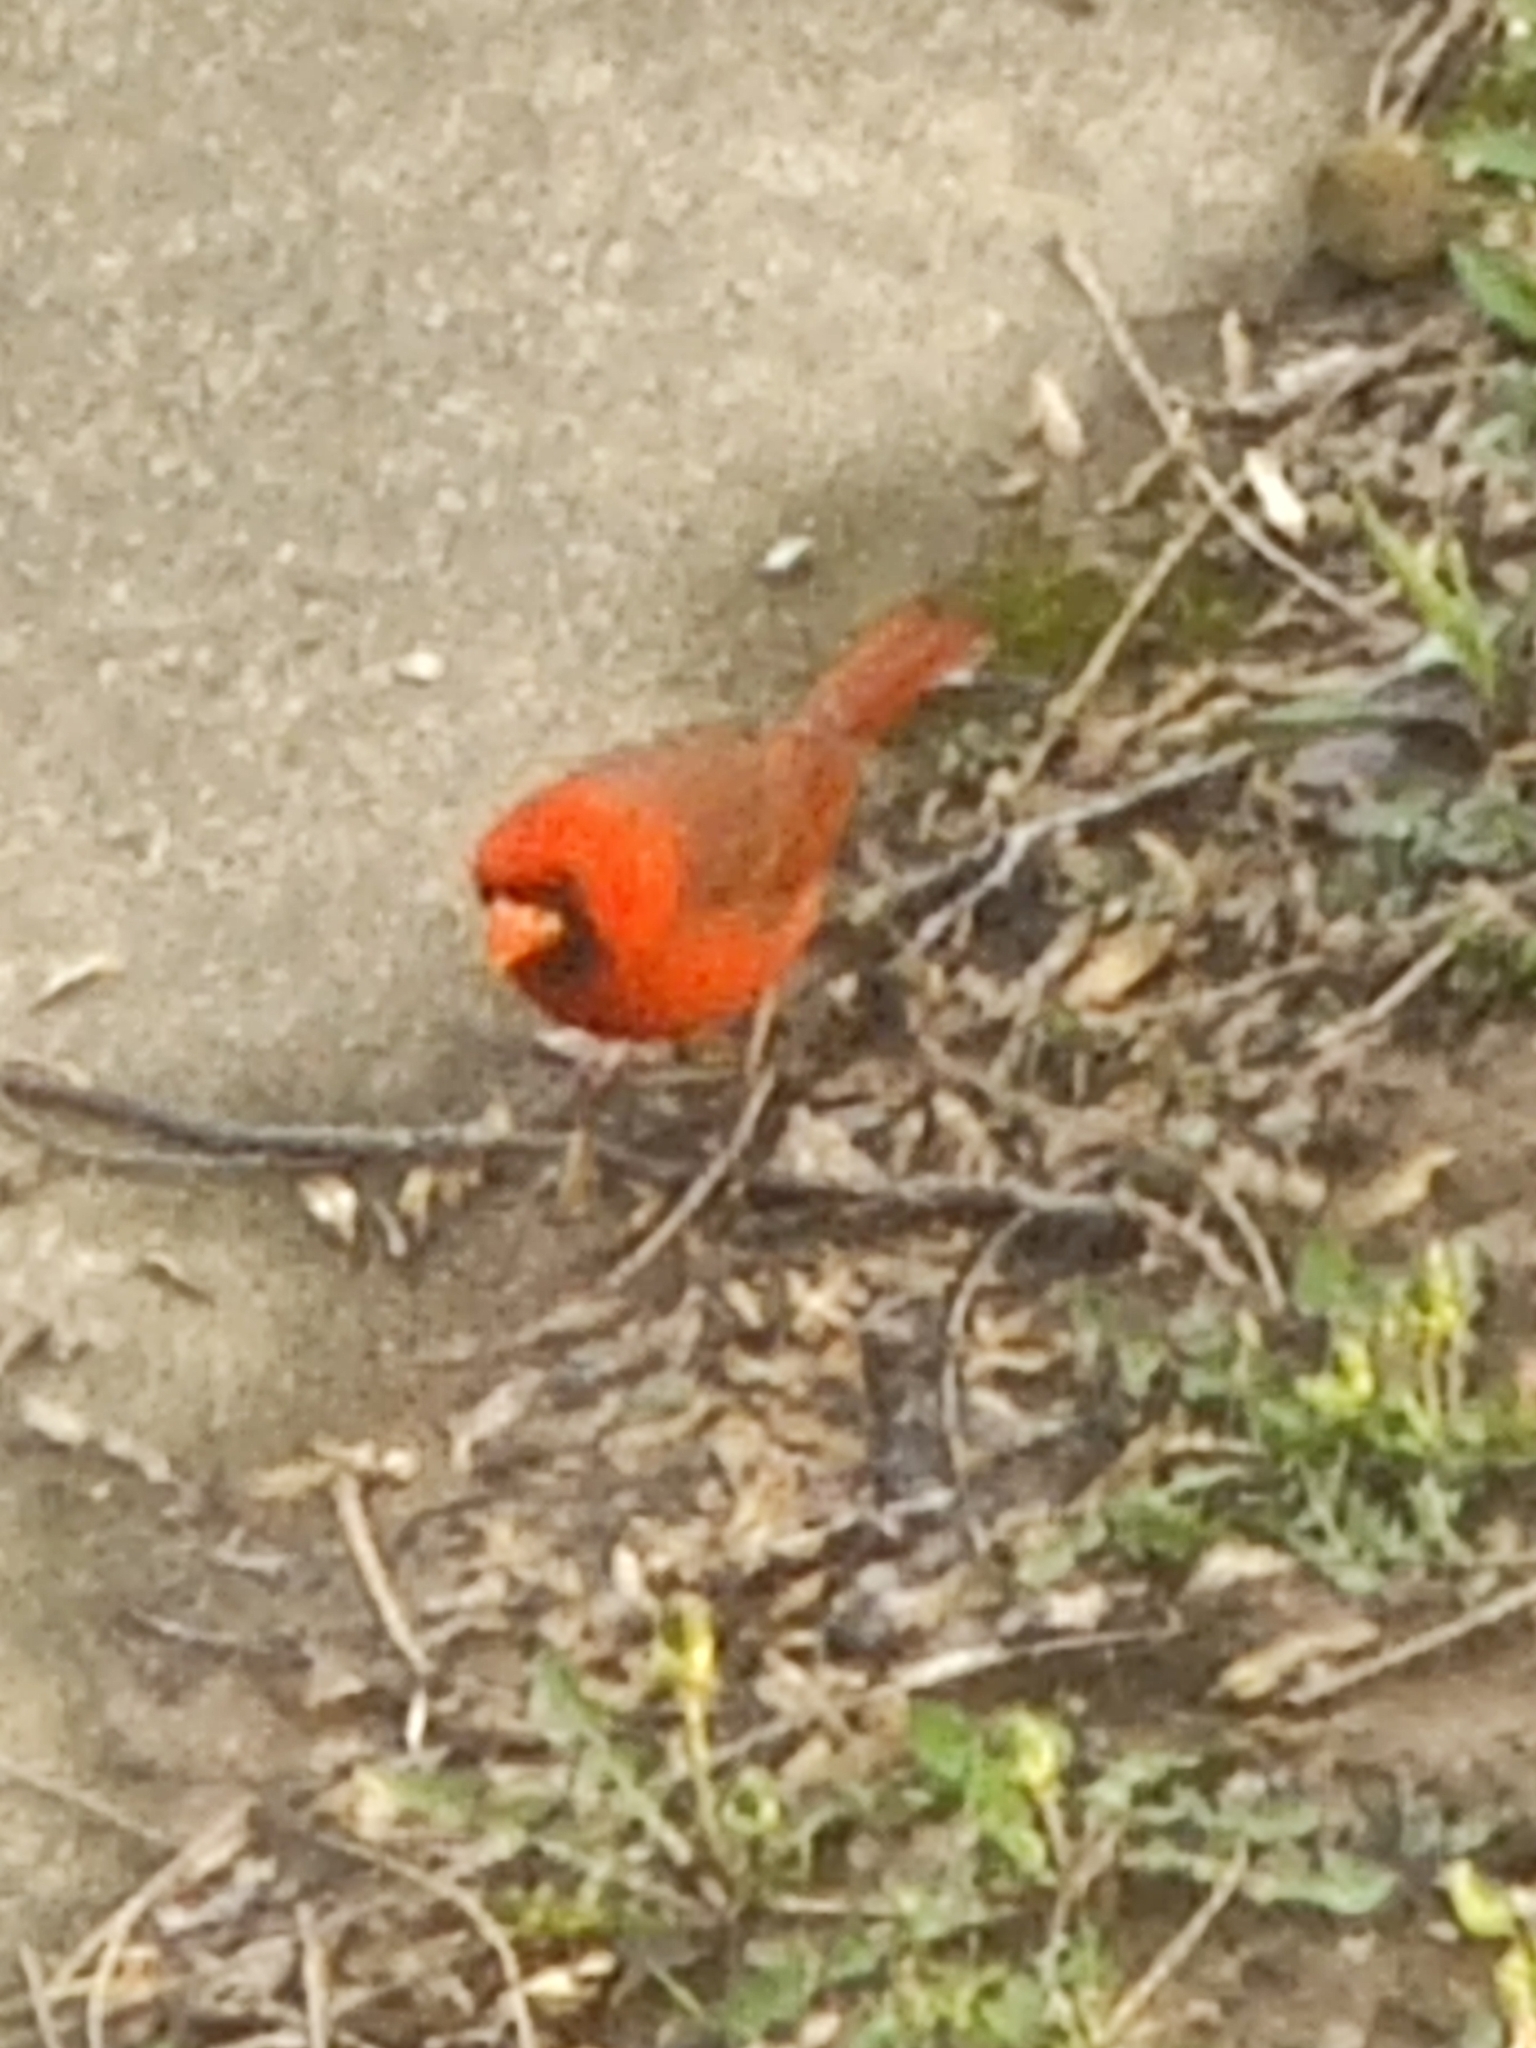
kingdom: Animalia
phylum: Chordata
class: Aves
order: Passeriformes
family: Cardinalidae
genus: Cardinalis
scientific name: Cardinalis cardinalis
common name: Northern cardinal
